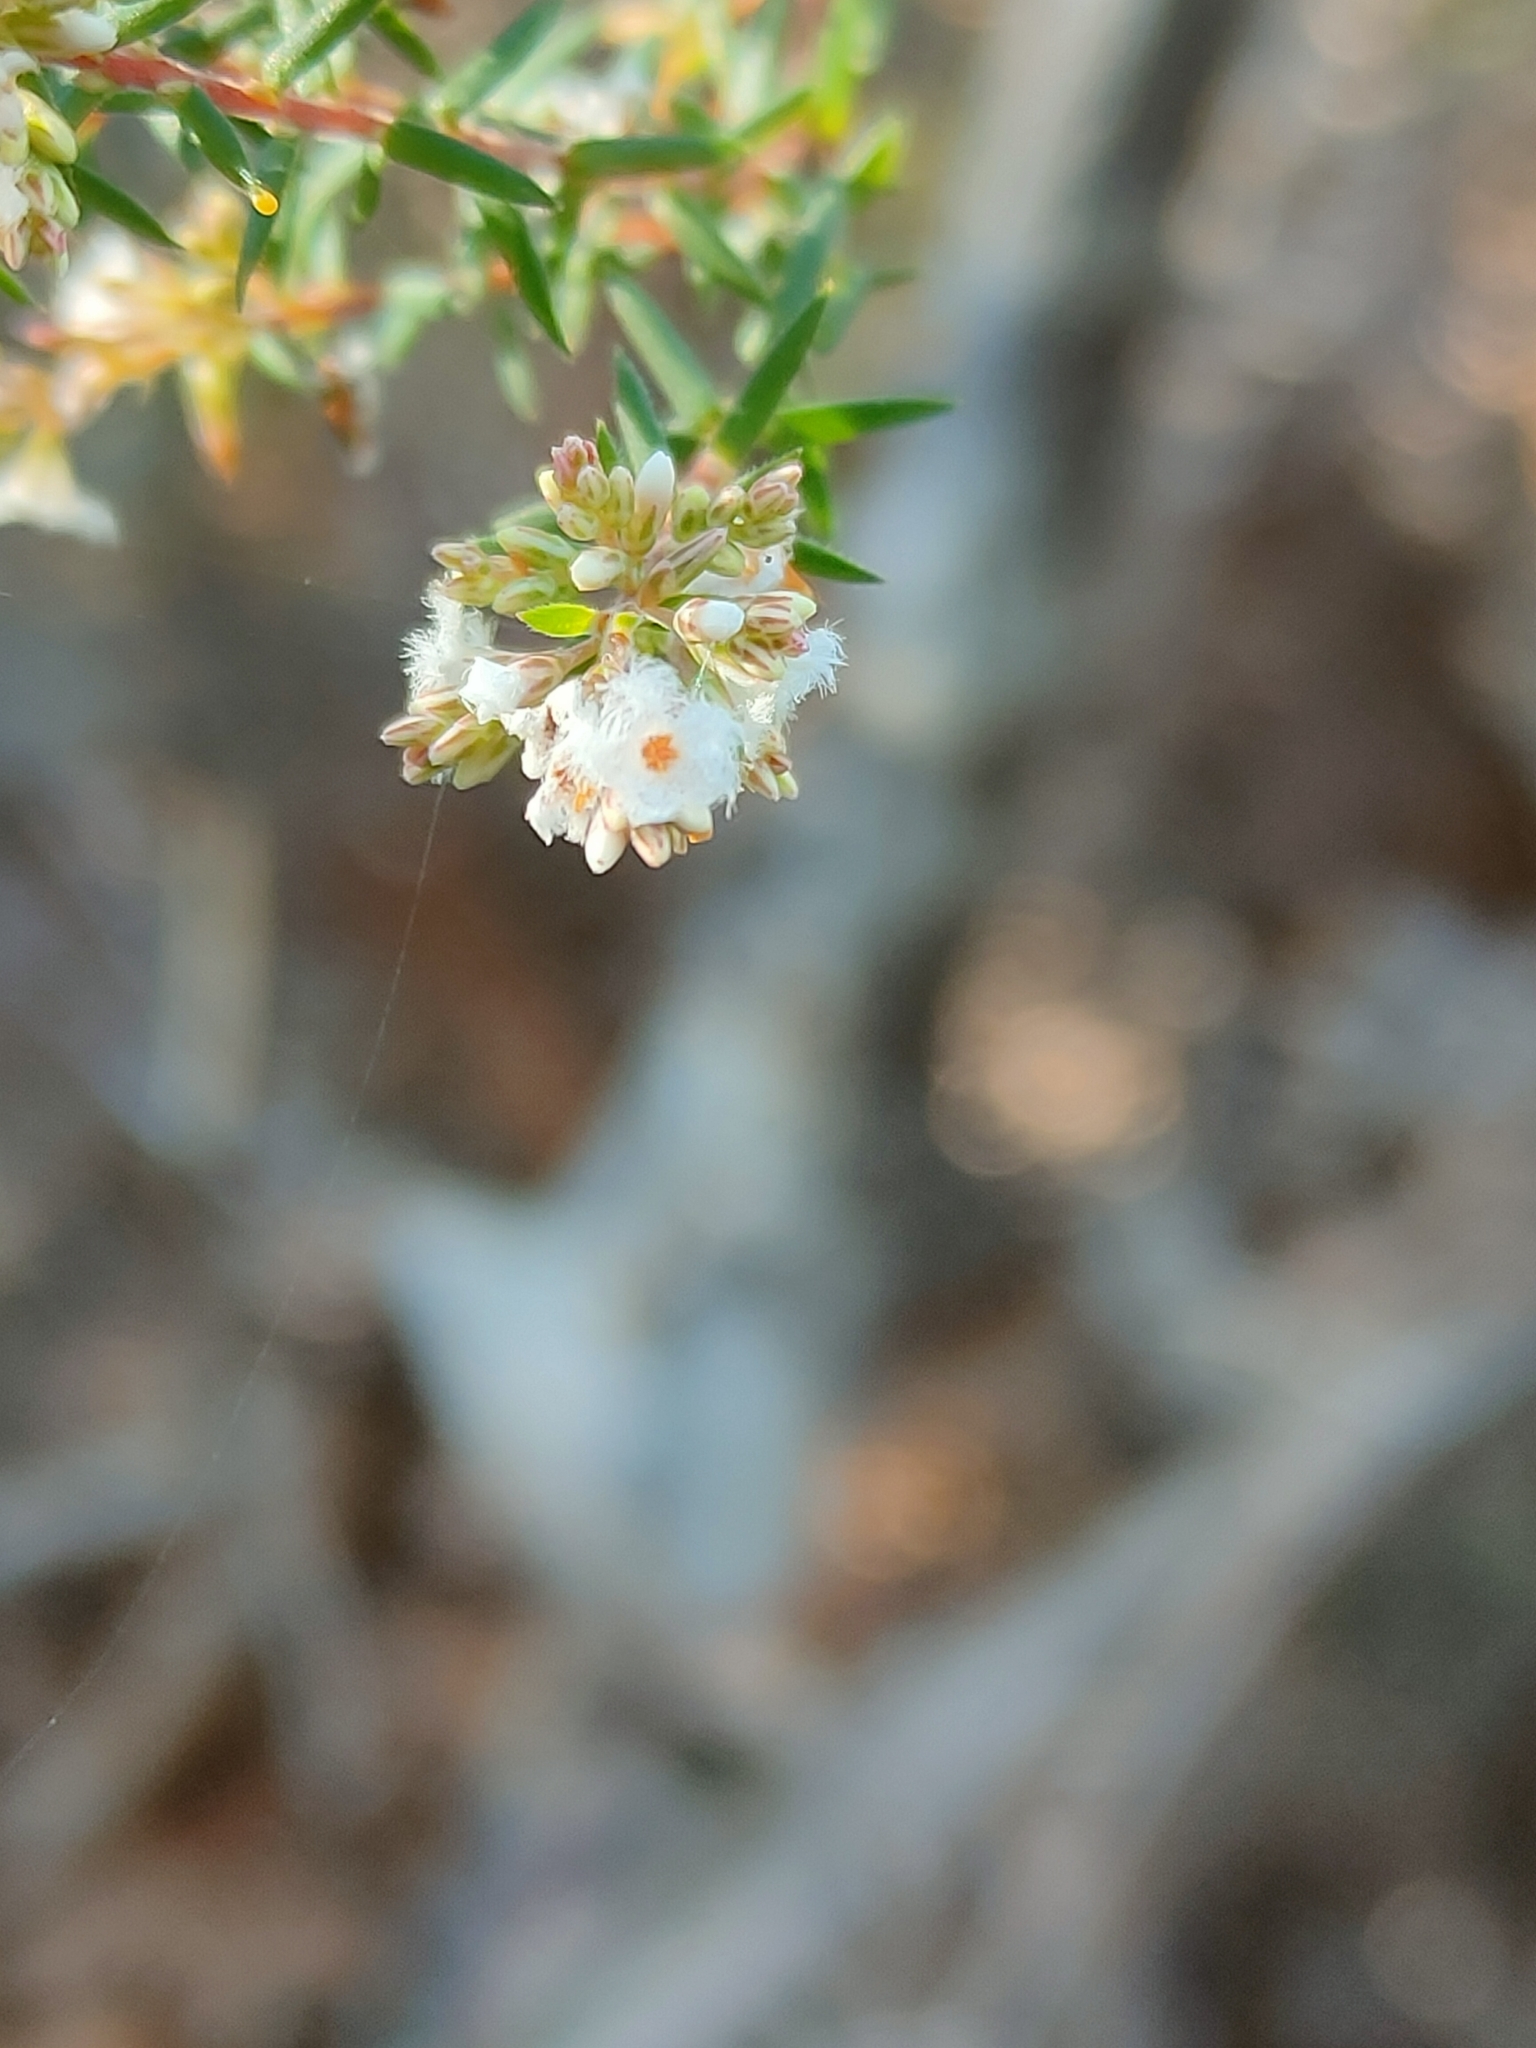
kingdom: Plantae
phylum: Tracheophyta
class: Magnoliopsida
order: Ericales
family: Ericaceae
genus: Leucopogon
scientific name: Leucopogon collinus
